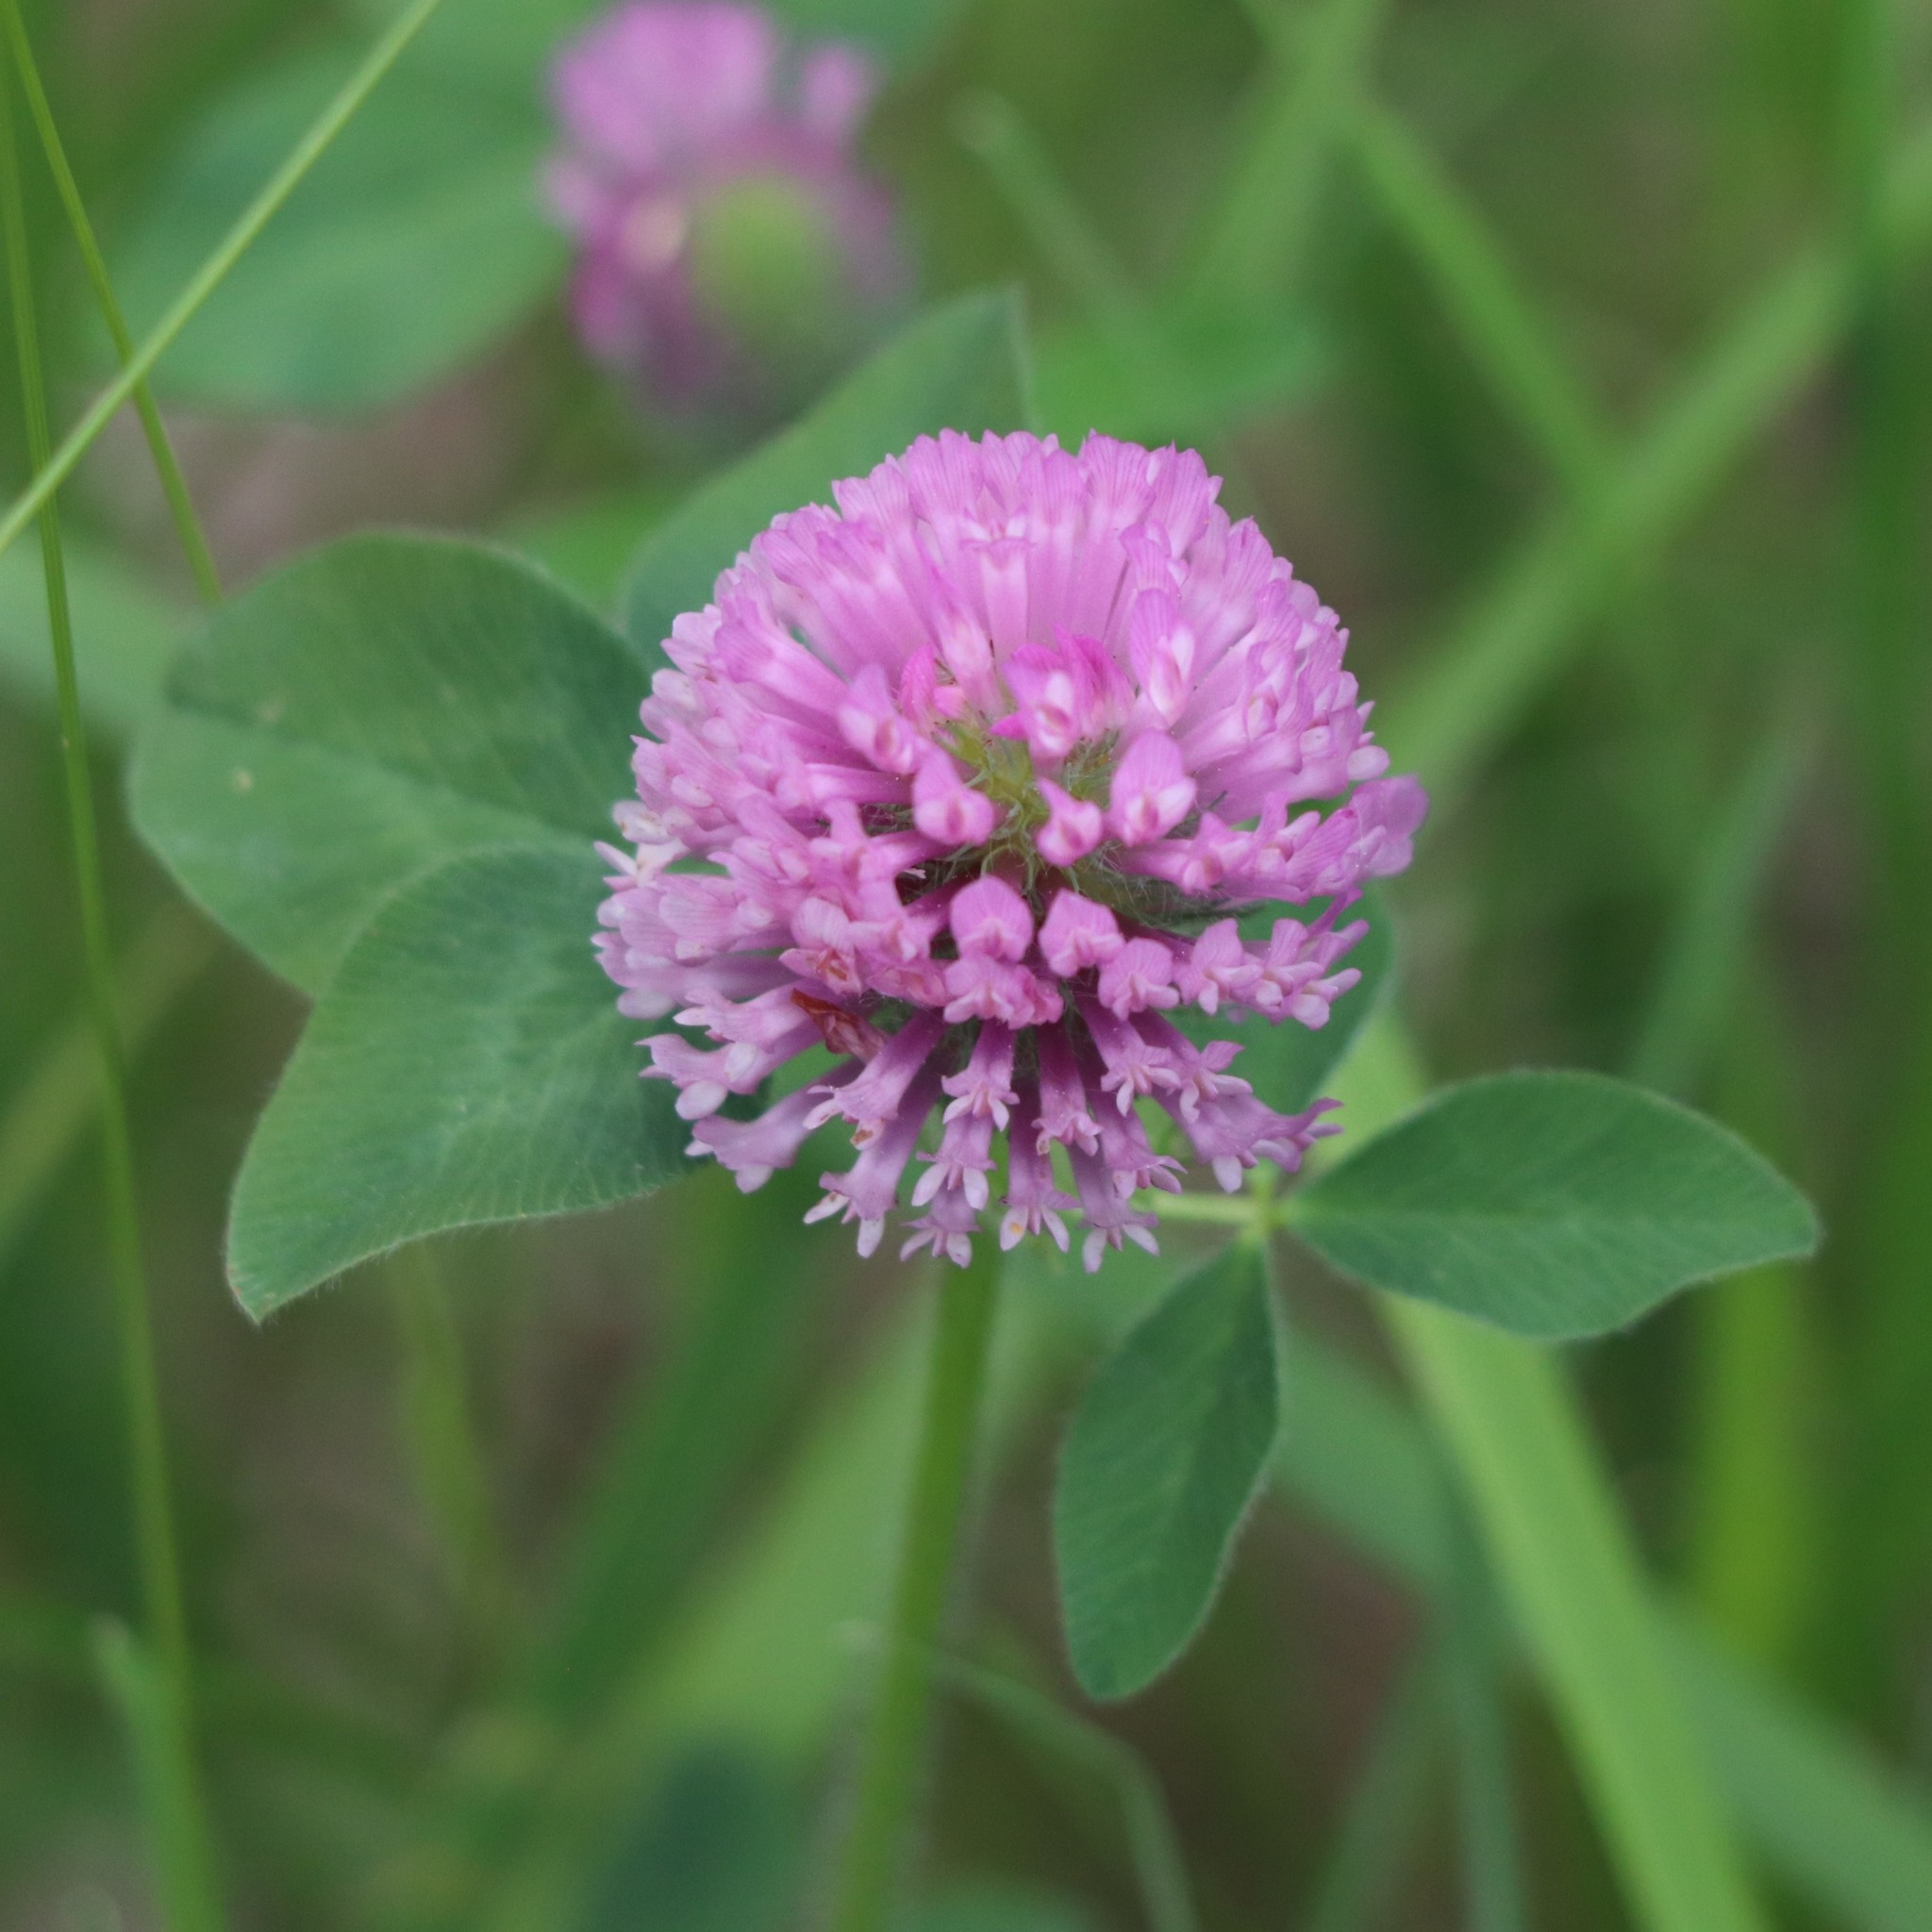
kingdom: Plantae
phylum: Tracheophyta
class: Magnoliopsida
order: Fabales
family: Fabaceae
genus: Trifolium
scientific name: Trifolium pratense
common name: Red clover
